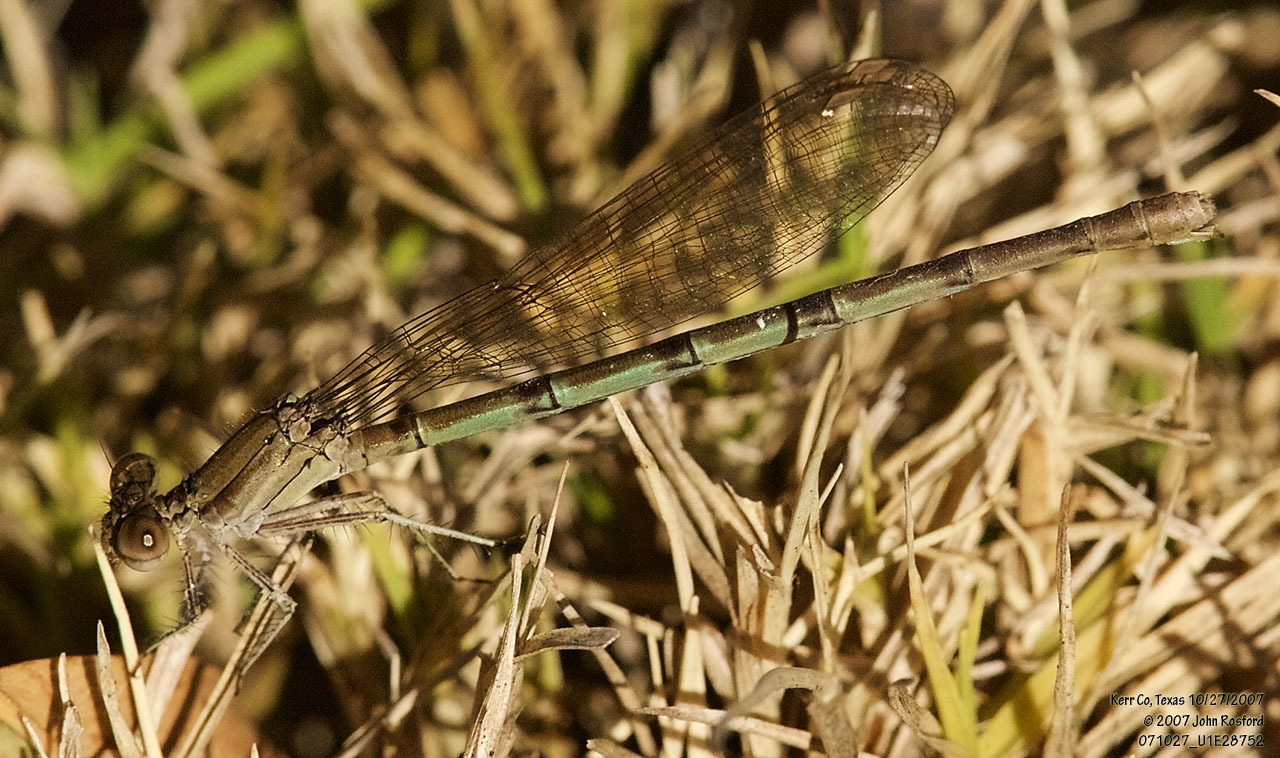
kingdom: Animalia
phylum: Arthropoda
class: Insecta
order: Odonata
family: Coenagrionidae
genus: Argia
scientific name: Argia sedula
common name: Blue-ringed dancer
